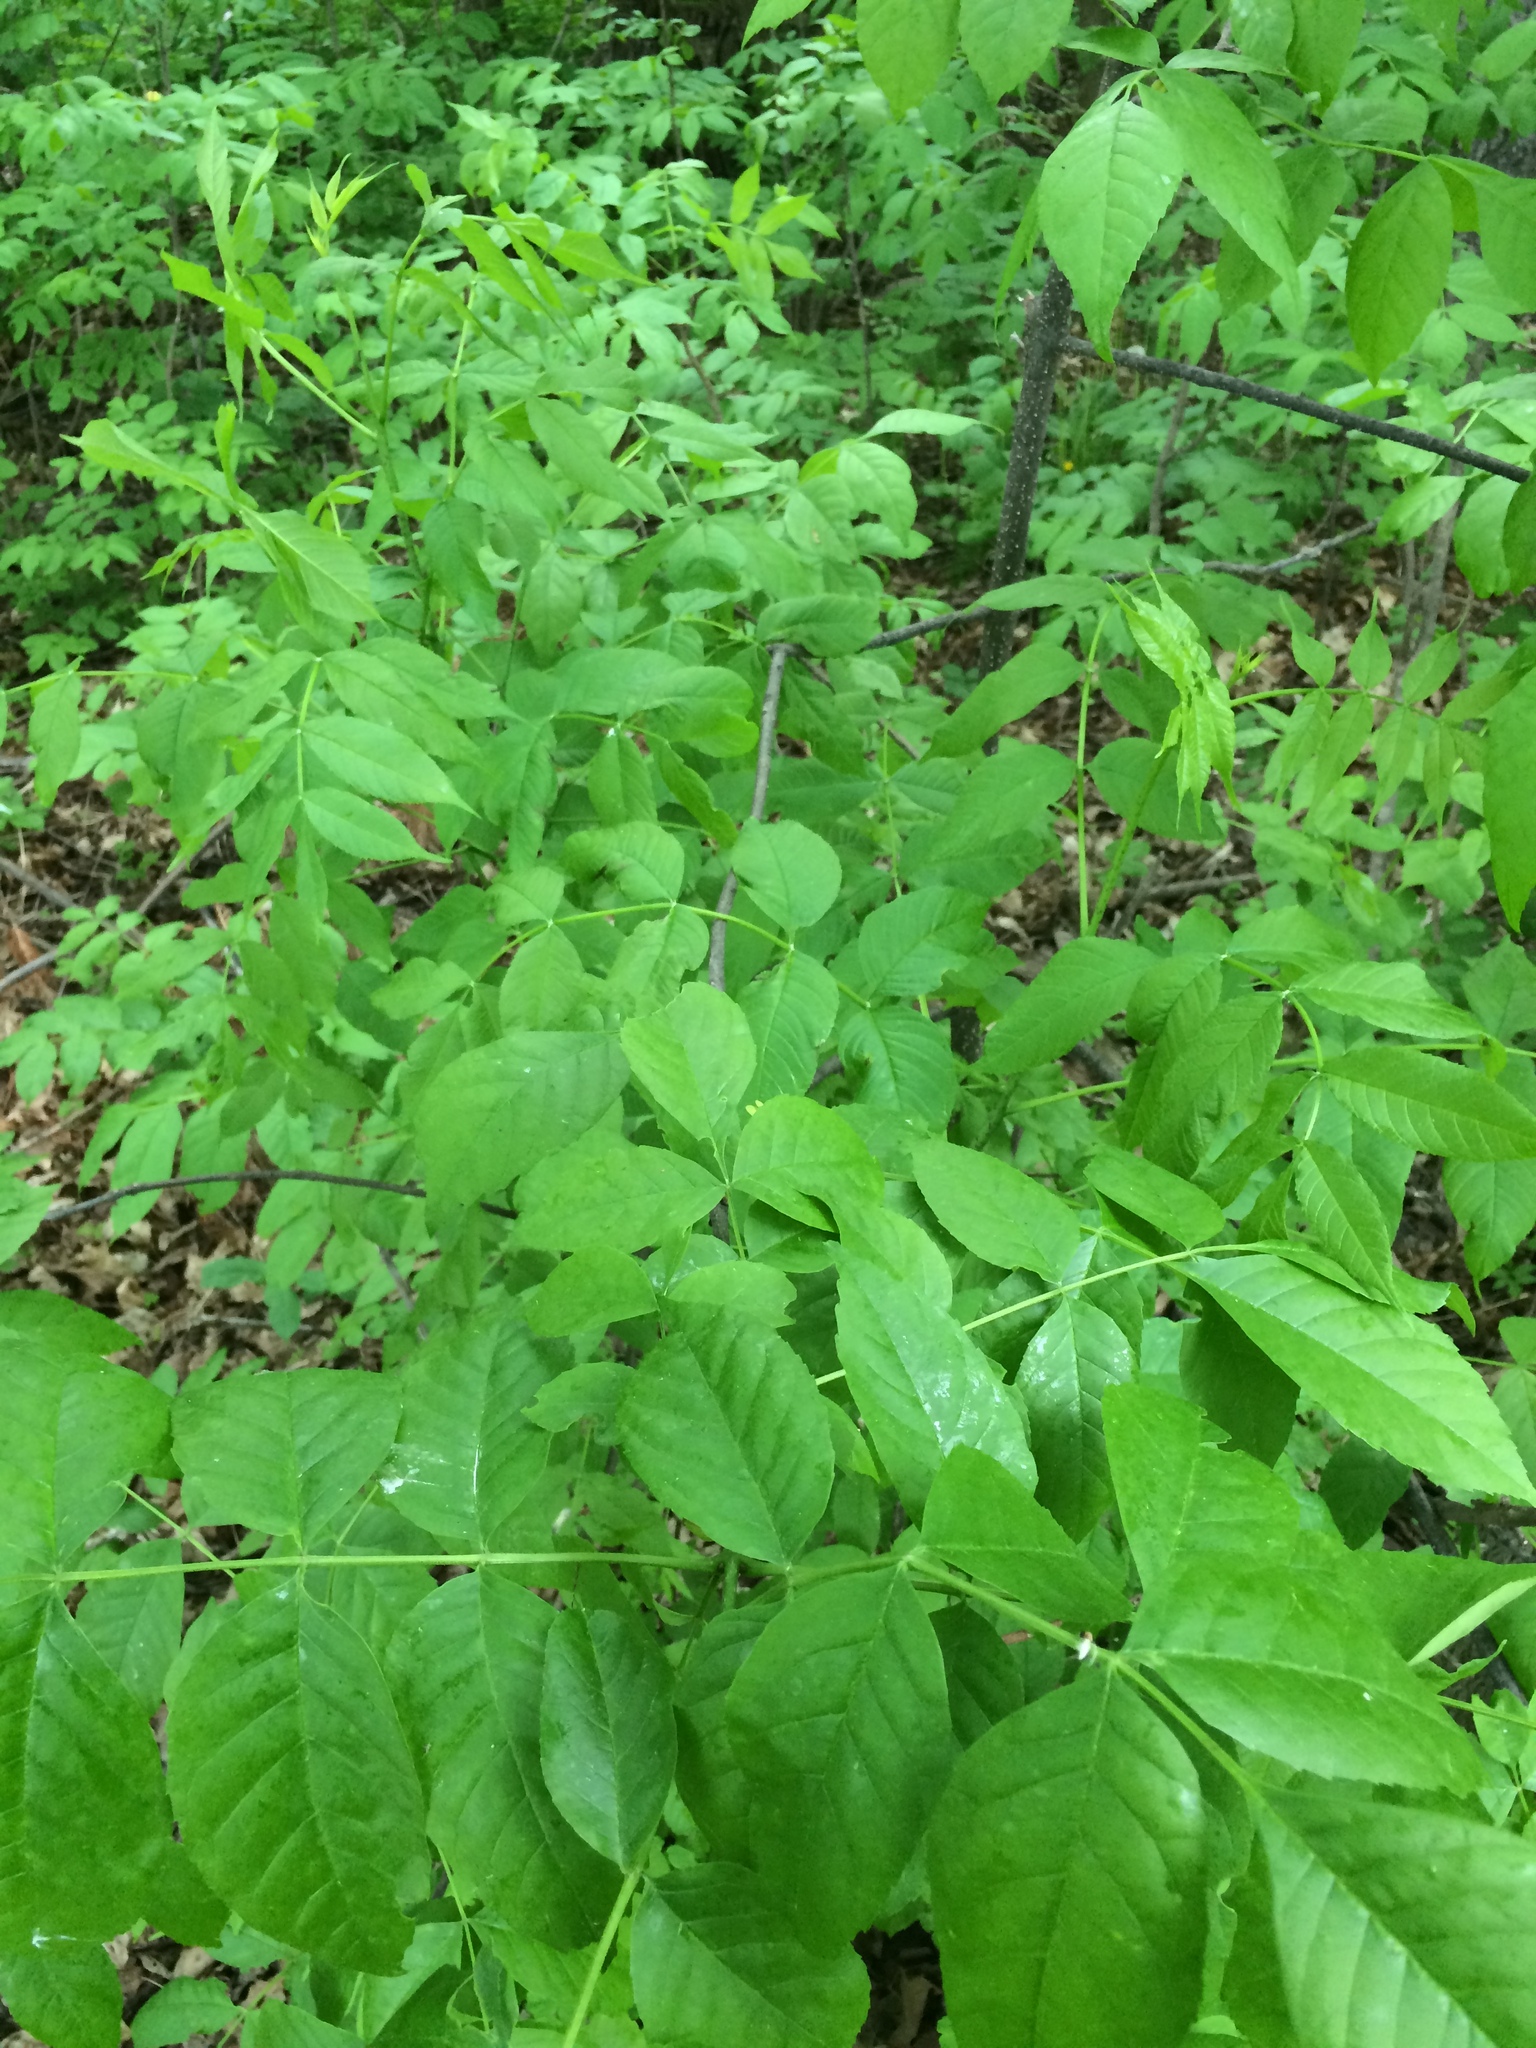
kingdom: Plantae
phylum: Tracheophyta
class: Magnoliopsida
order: Lamiales
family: Oleaceae
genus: Fraxinus
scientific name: Fraxinus pennsylvanica
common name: Green ash
